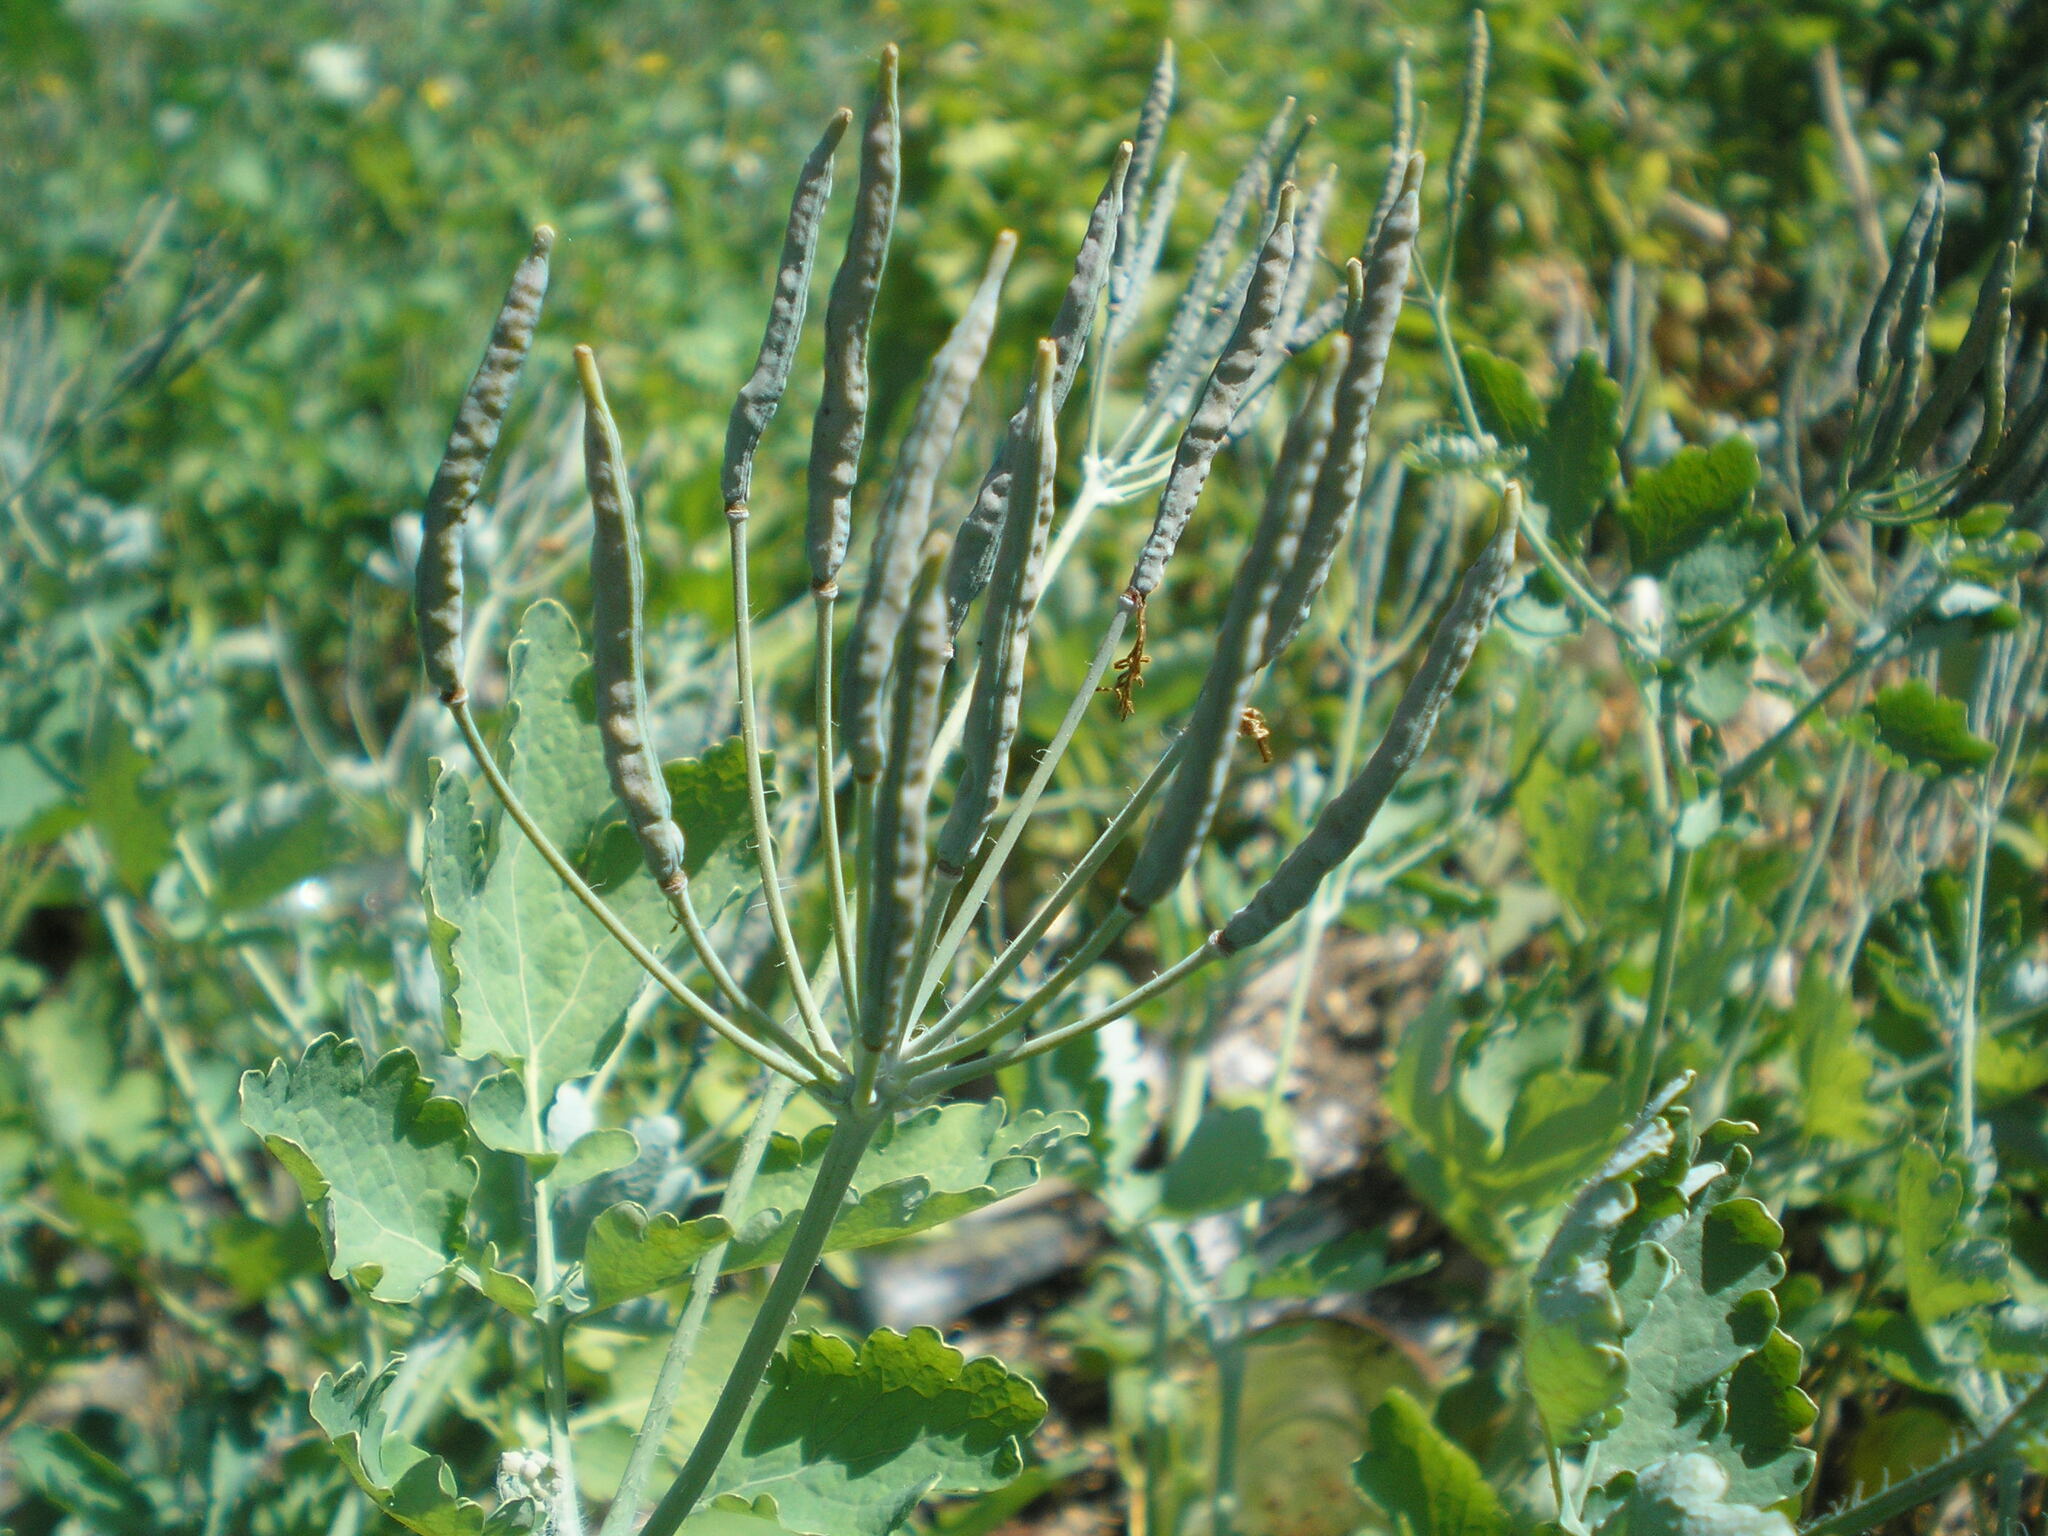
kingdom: Plantae
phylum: Tracheophyta
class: Magnoliopsida
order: Ranunculales
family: Papaveraceae
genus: Chelidonium
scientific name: Chelidonium majus
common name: Greater celandine
